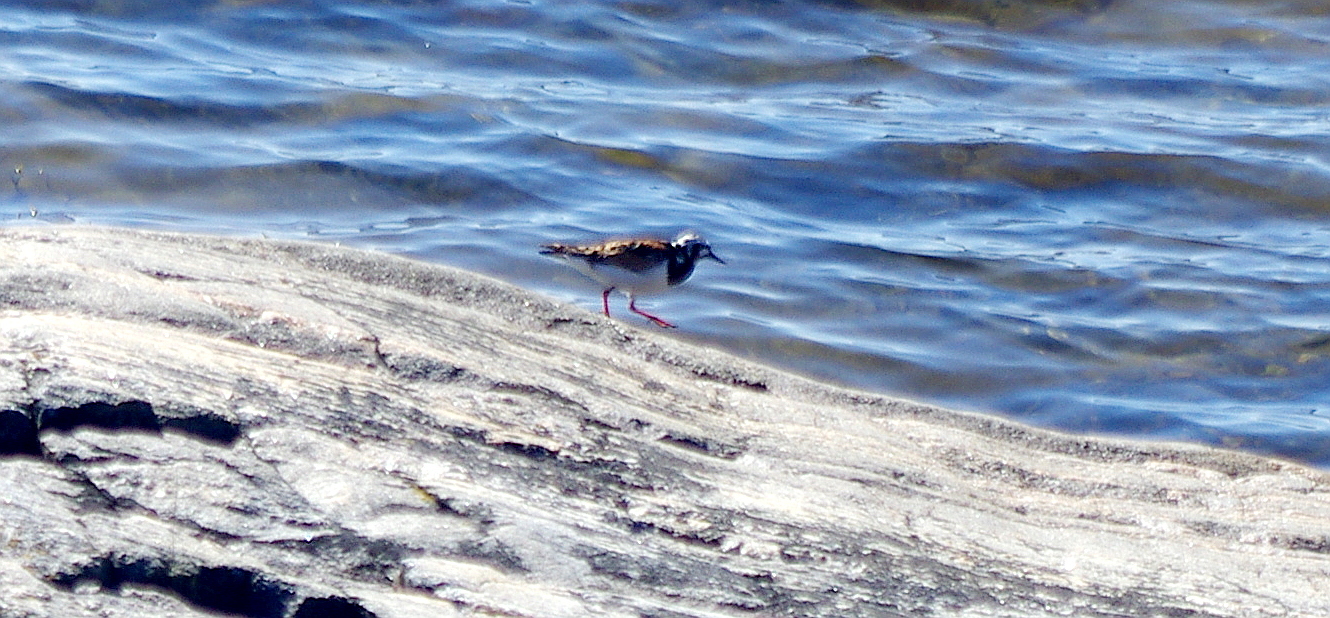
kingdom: Animalia
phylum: Chordata
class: Aves
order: Charadriiformes
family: Scolopacidae
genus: Arenaria
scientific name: Arenaria interpres
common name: Ruddy turnstone
